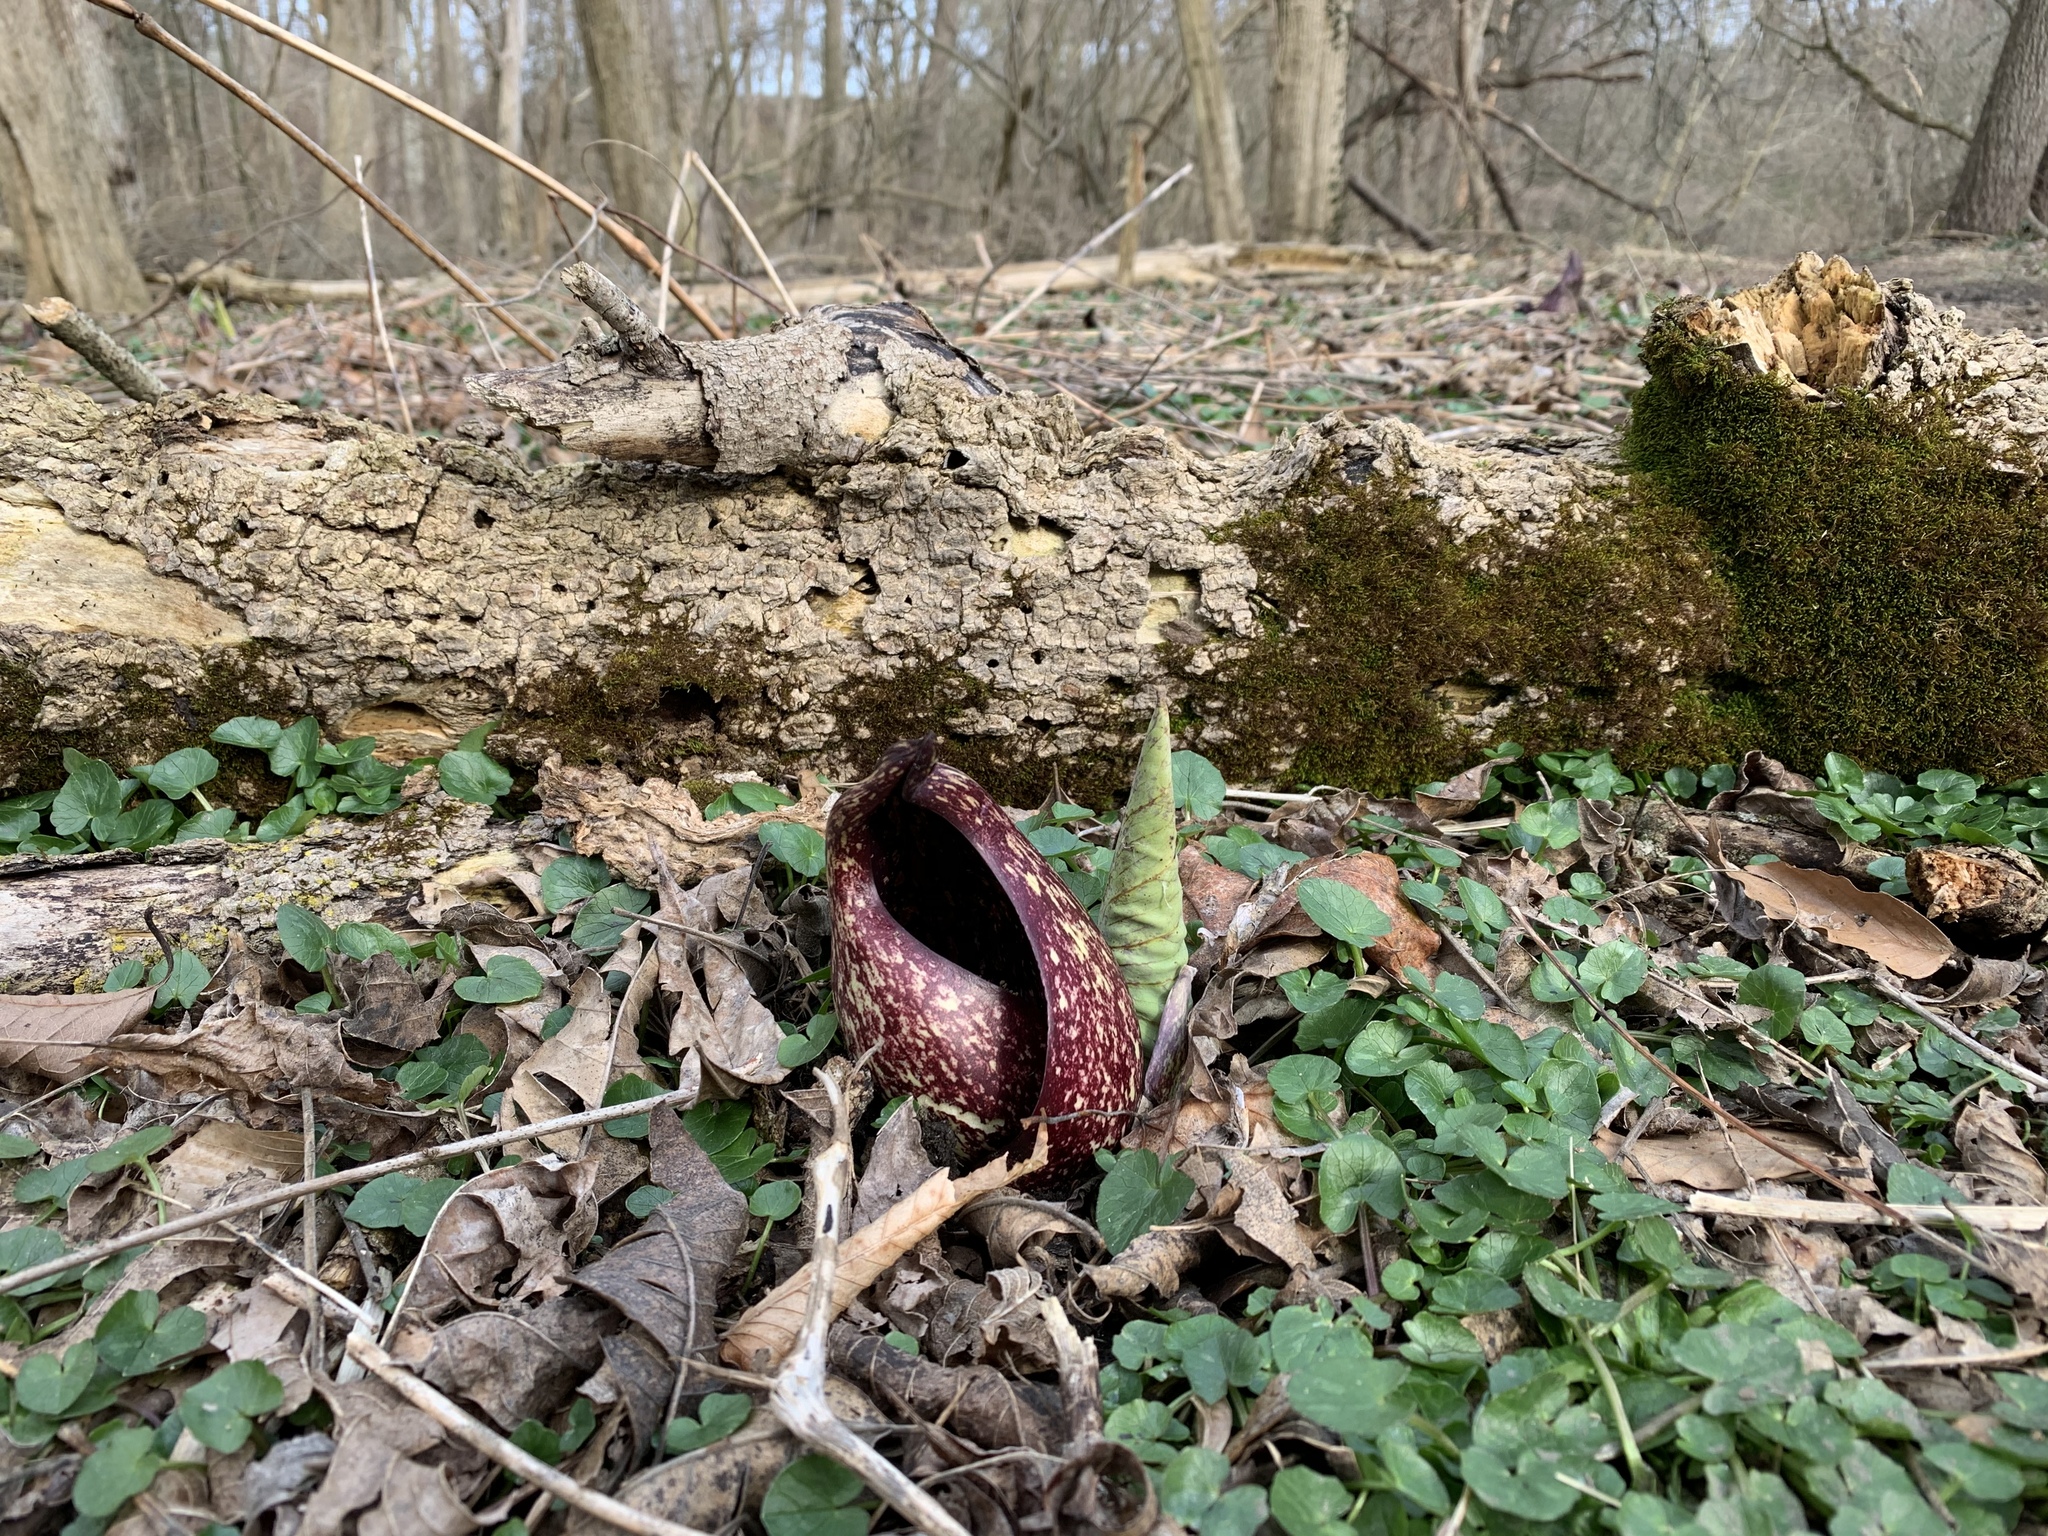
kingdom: Plantae
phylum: Tracheophyta
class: Liliopsida
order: Alismatales
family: Araceae
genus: Symplocarpus
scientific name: Symplocarpus foetidus
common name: Eastern skunk cabbage
